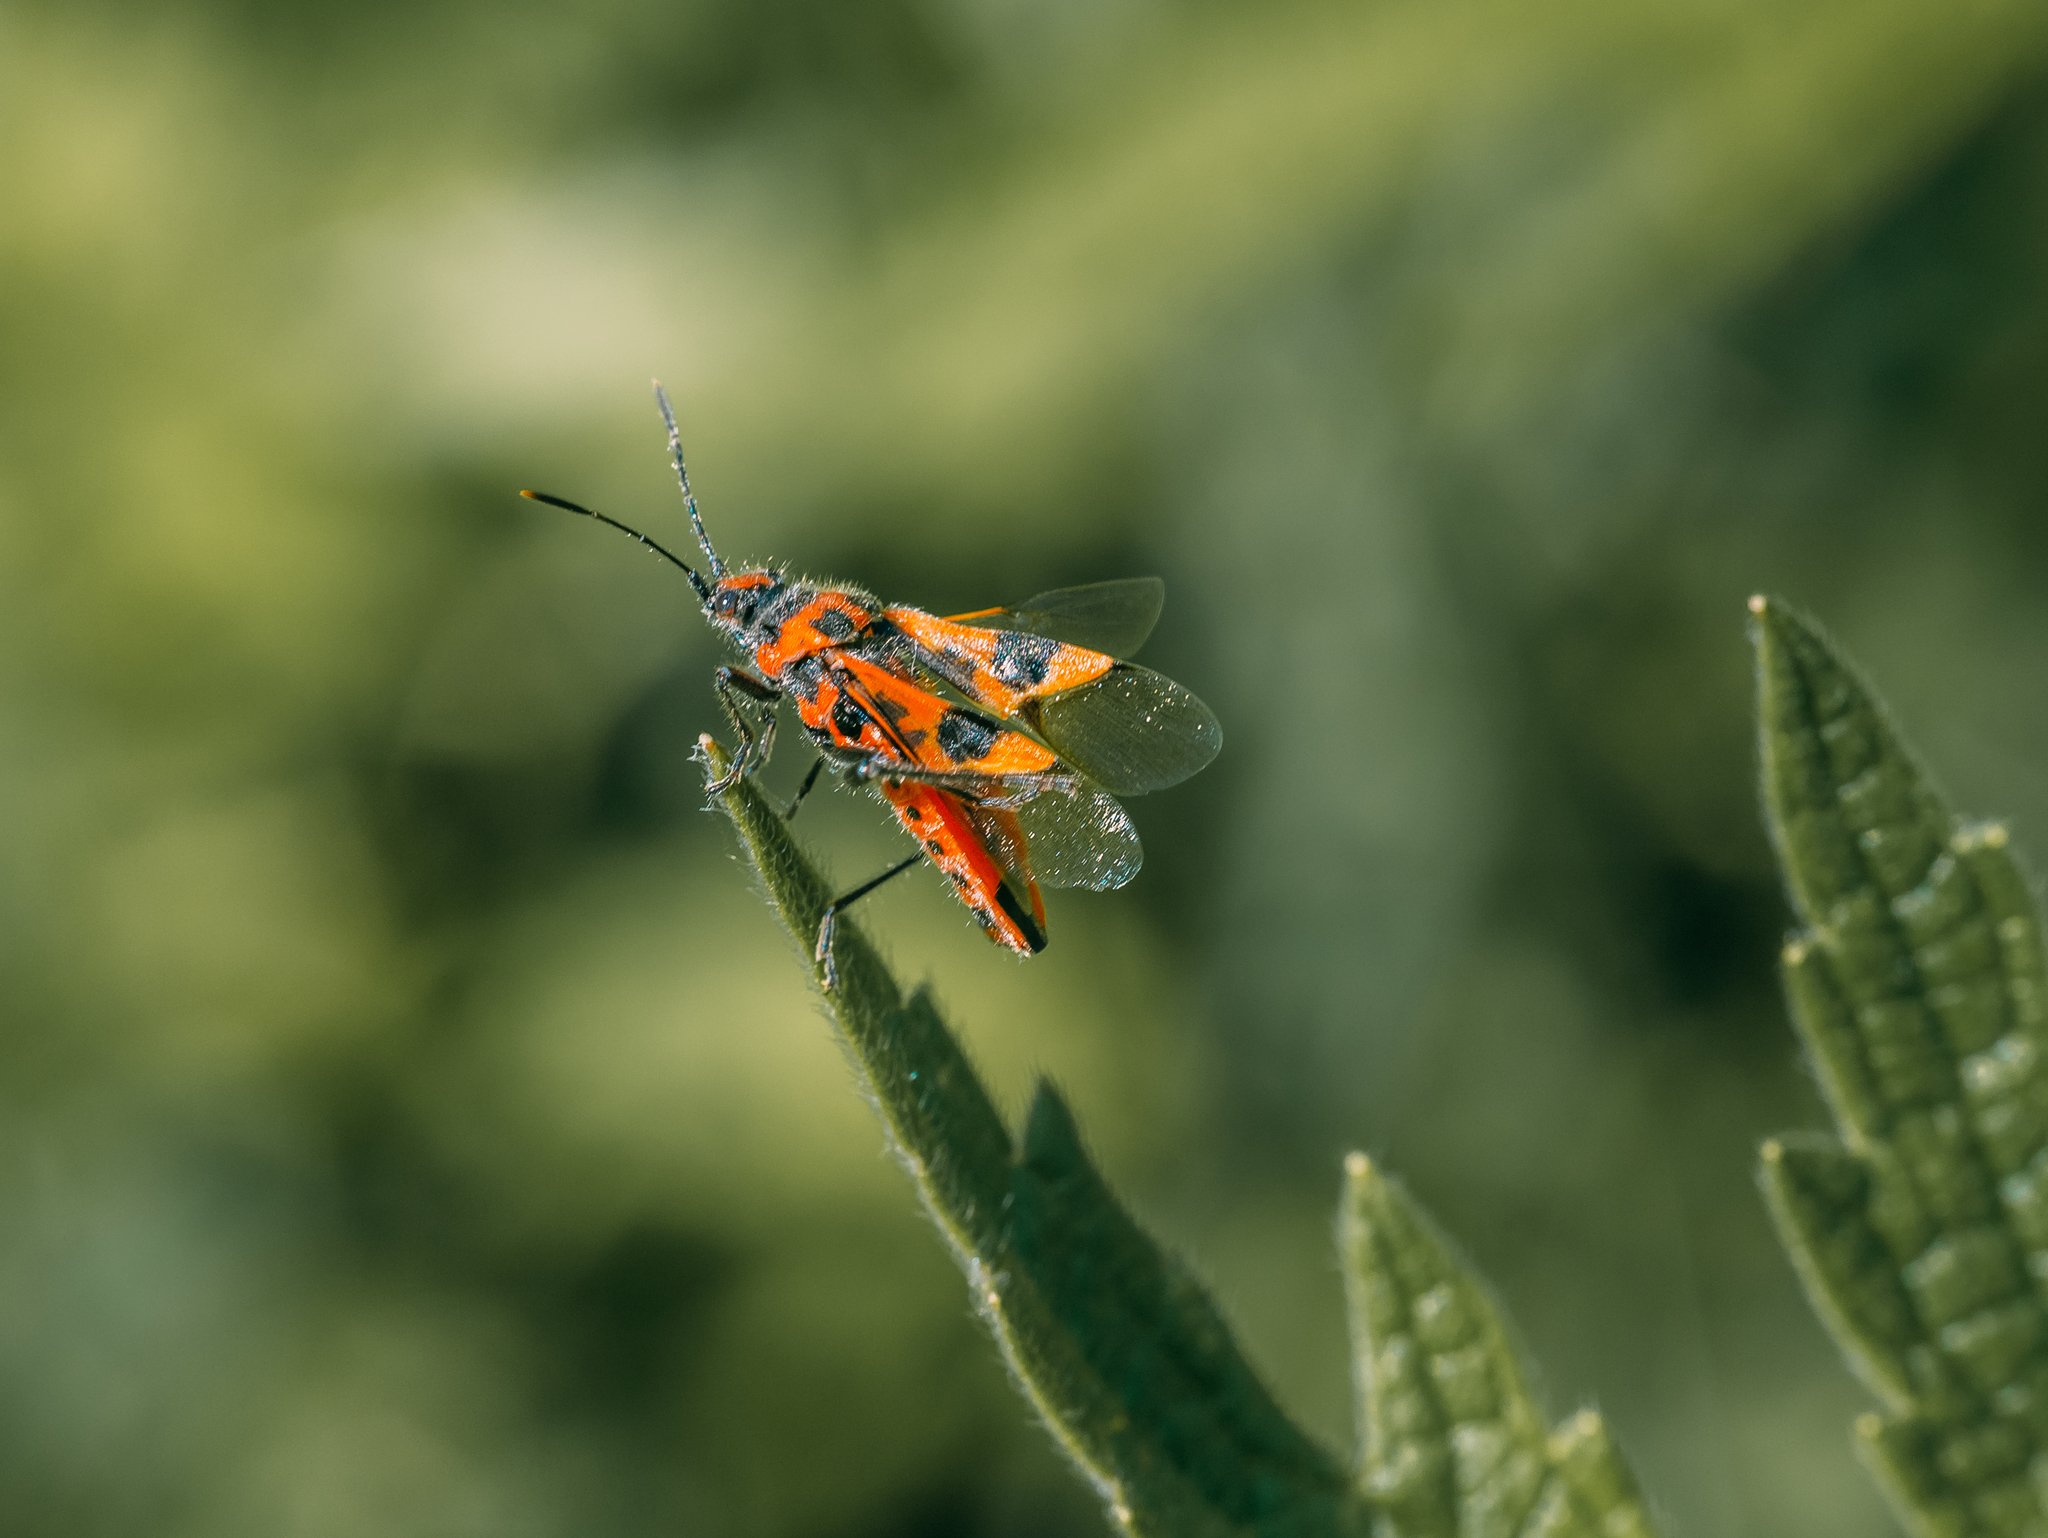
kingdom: Animalia
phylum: Arthropoda
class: Insecta
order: Hemiptera
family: Rhopalidae
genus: Corizus
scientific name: Corizus hyoscyami
